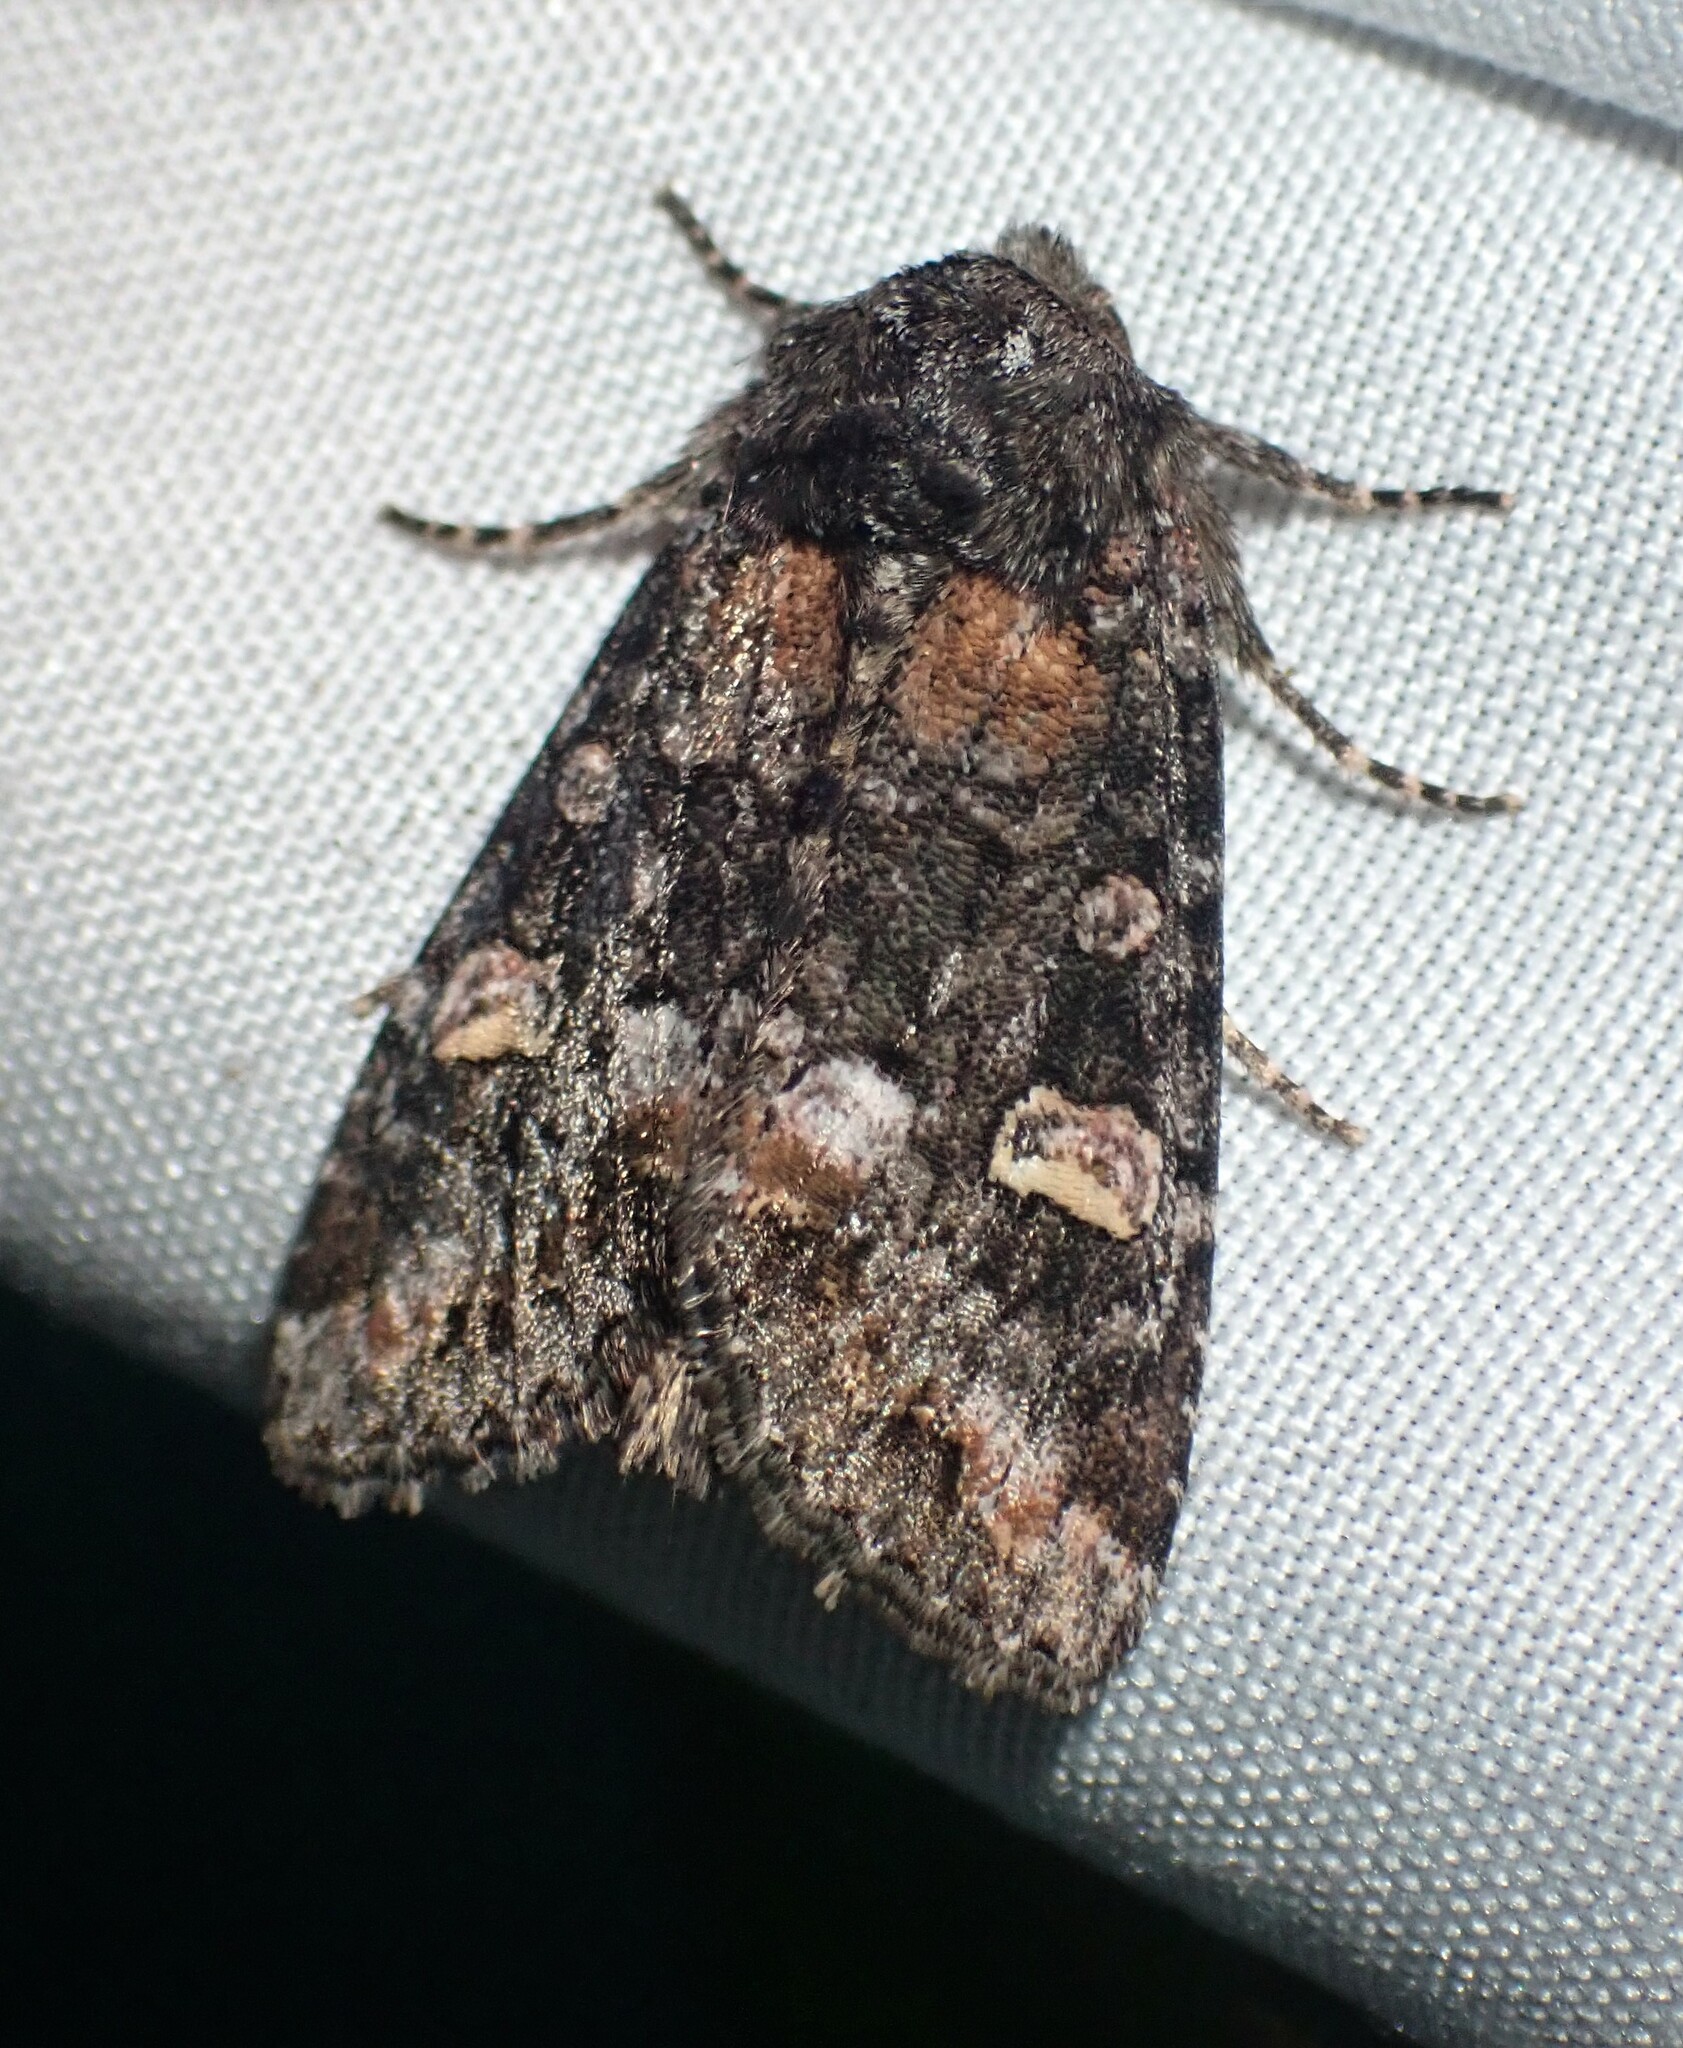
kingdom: Animalia
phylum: Arthropoda
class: Insecta
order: Lepidoptera
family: Noctuidae
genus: Spiramater
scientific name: Spiramater lutra
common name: Otter spiramater moth
